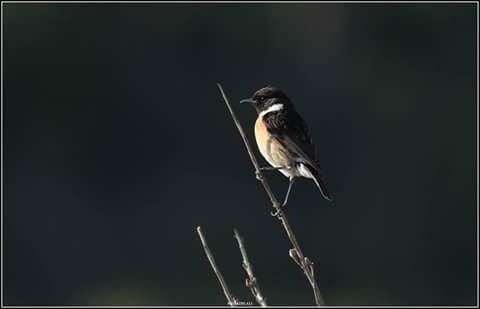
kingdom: Animalia
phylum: Chordata
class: Aves
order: Passeriformes
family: Muscicapidae
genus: Saxicola
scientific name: Saxicola rubicola
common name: European stonechat
